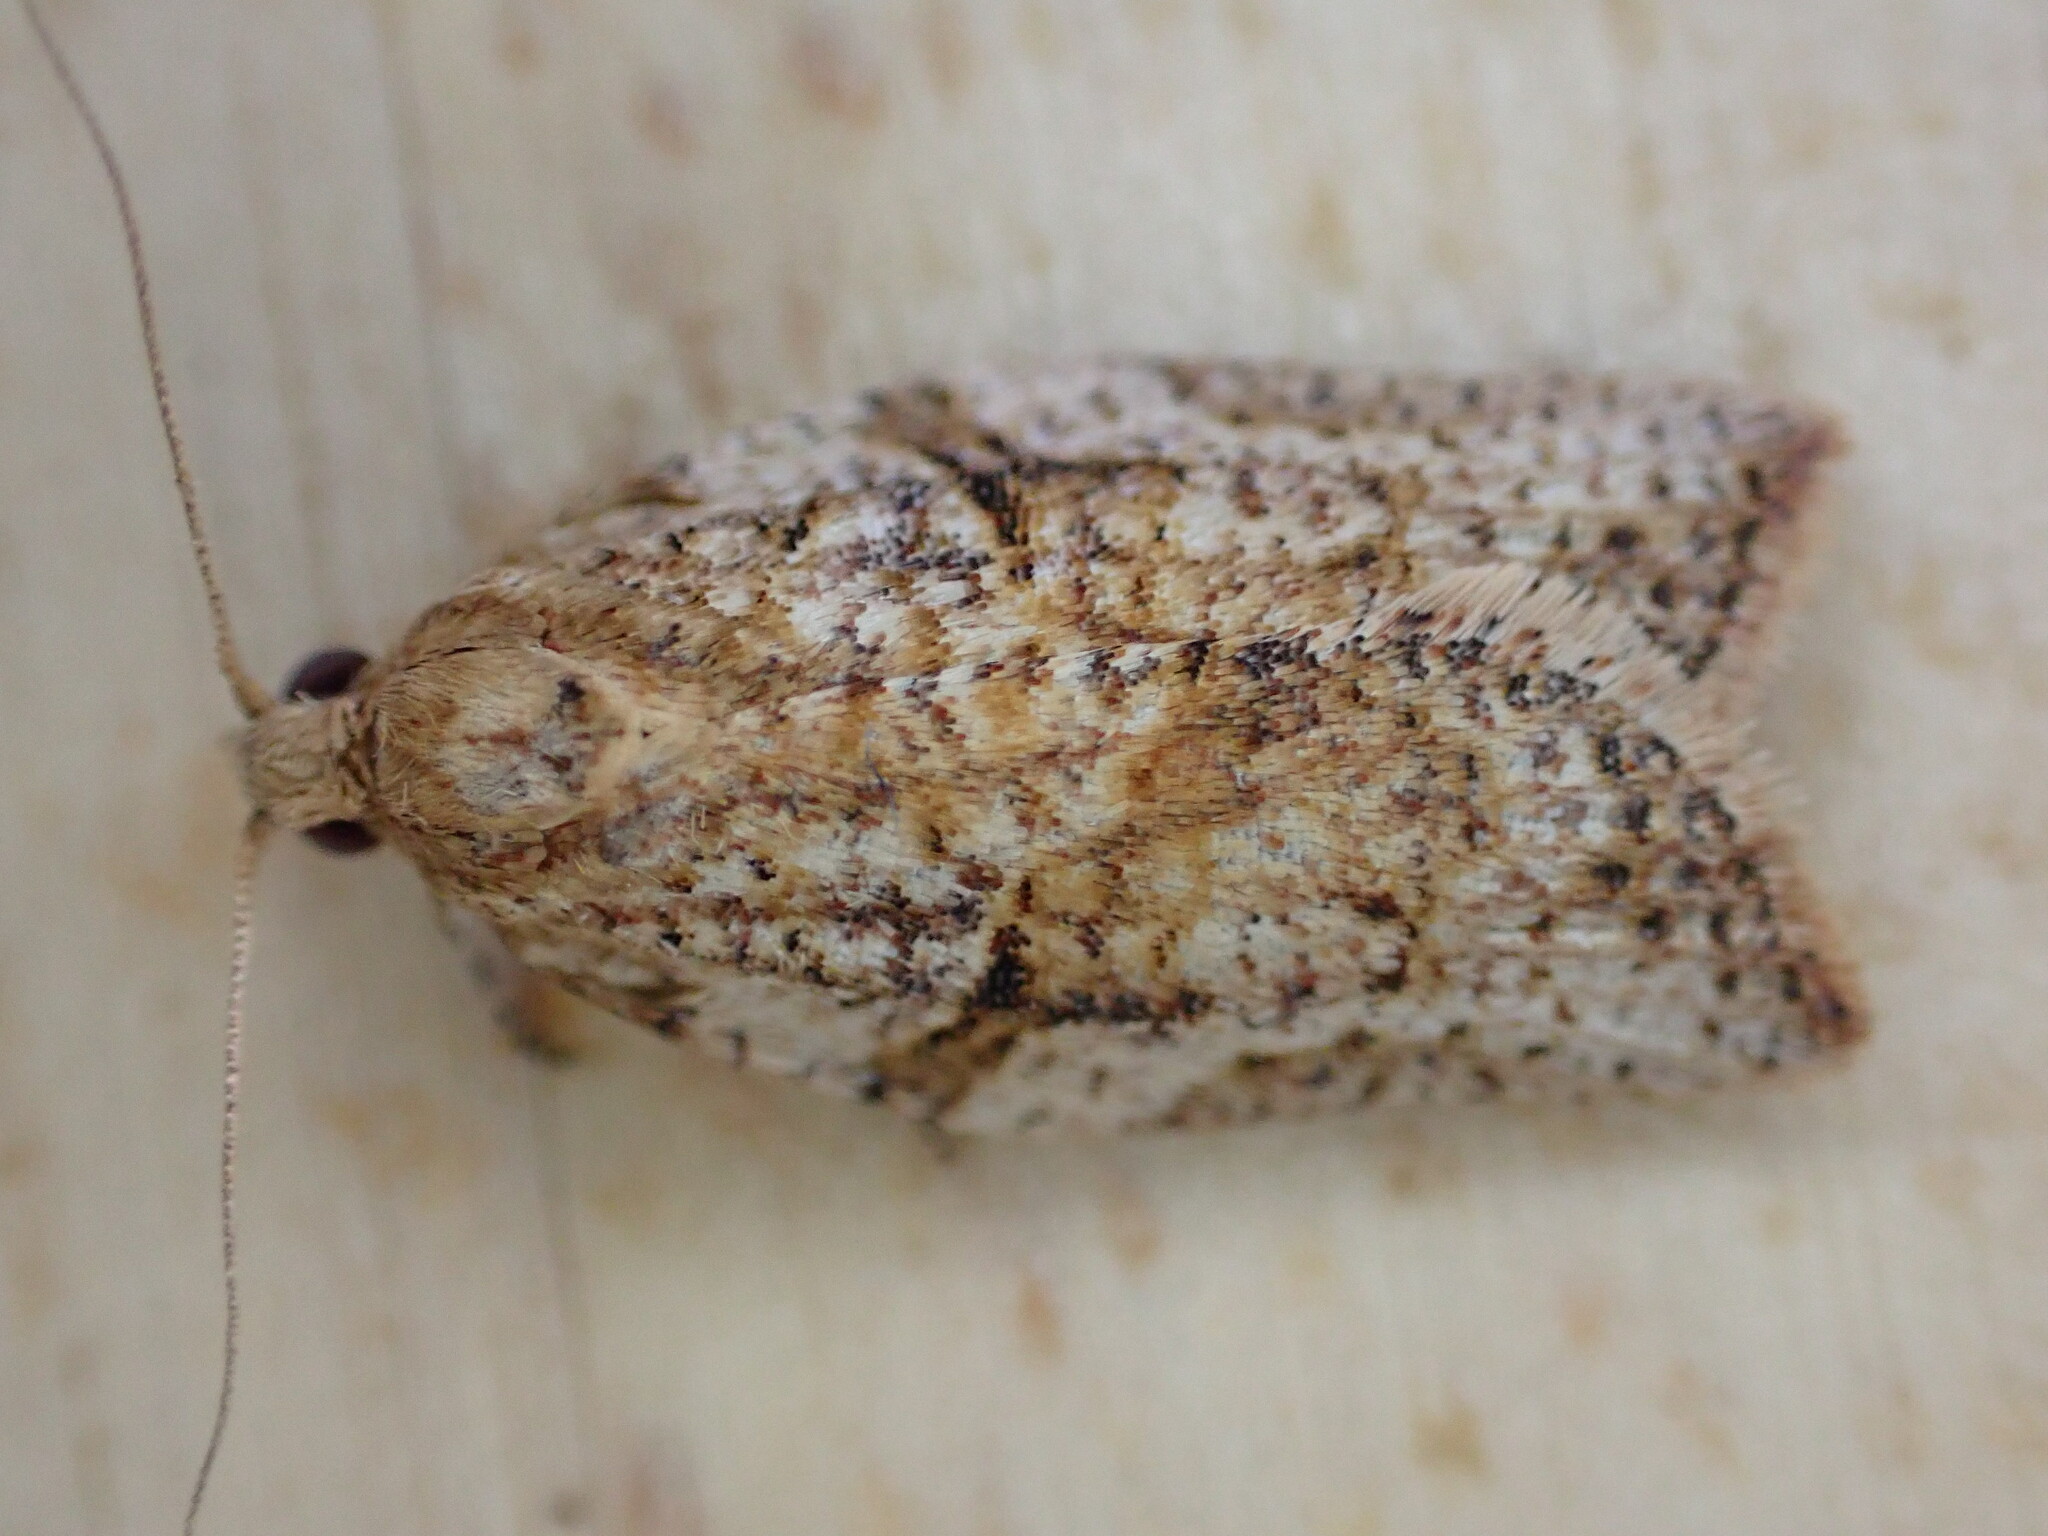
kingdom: Animalia
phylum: Arthropoda
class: Insecta
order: Lepidoptera
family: Tortricidae
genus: Epiphyas
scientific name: Epiphyas postvittana
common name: Light brown apple moth
